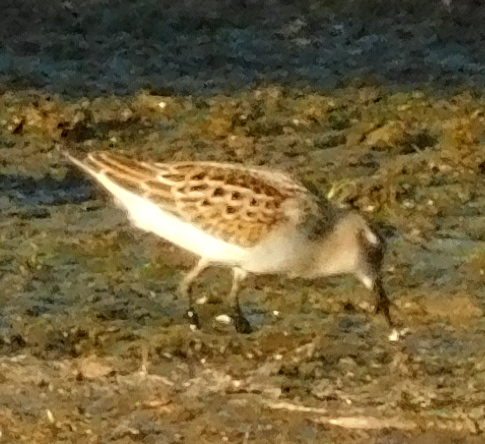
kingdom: Animalia
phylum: Chordata
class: Aves
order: Charadriiformes
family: Scolopacidae
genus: Calidris
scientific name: Calidris minuta
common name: Little stint
